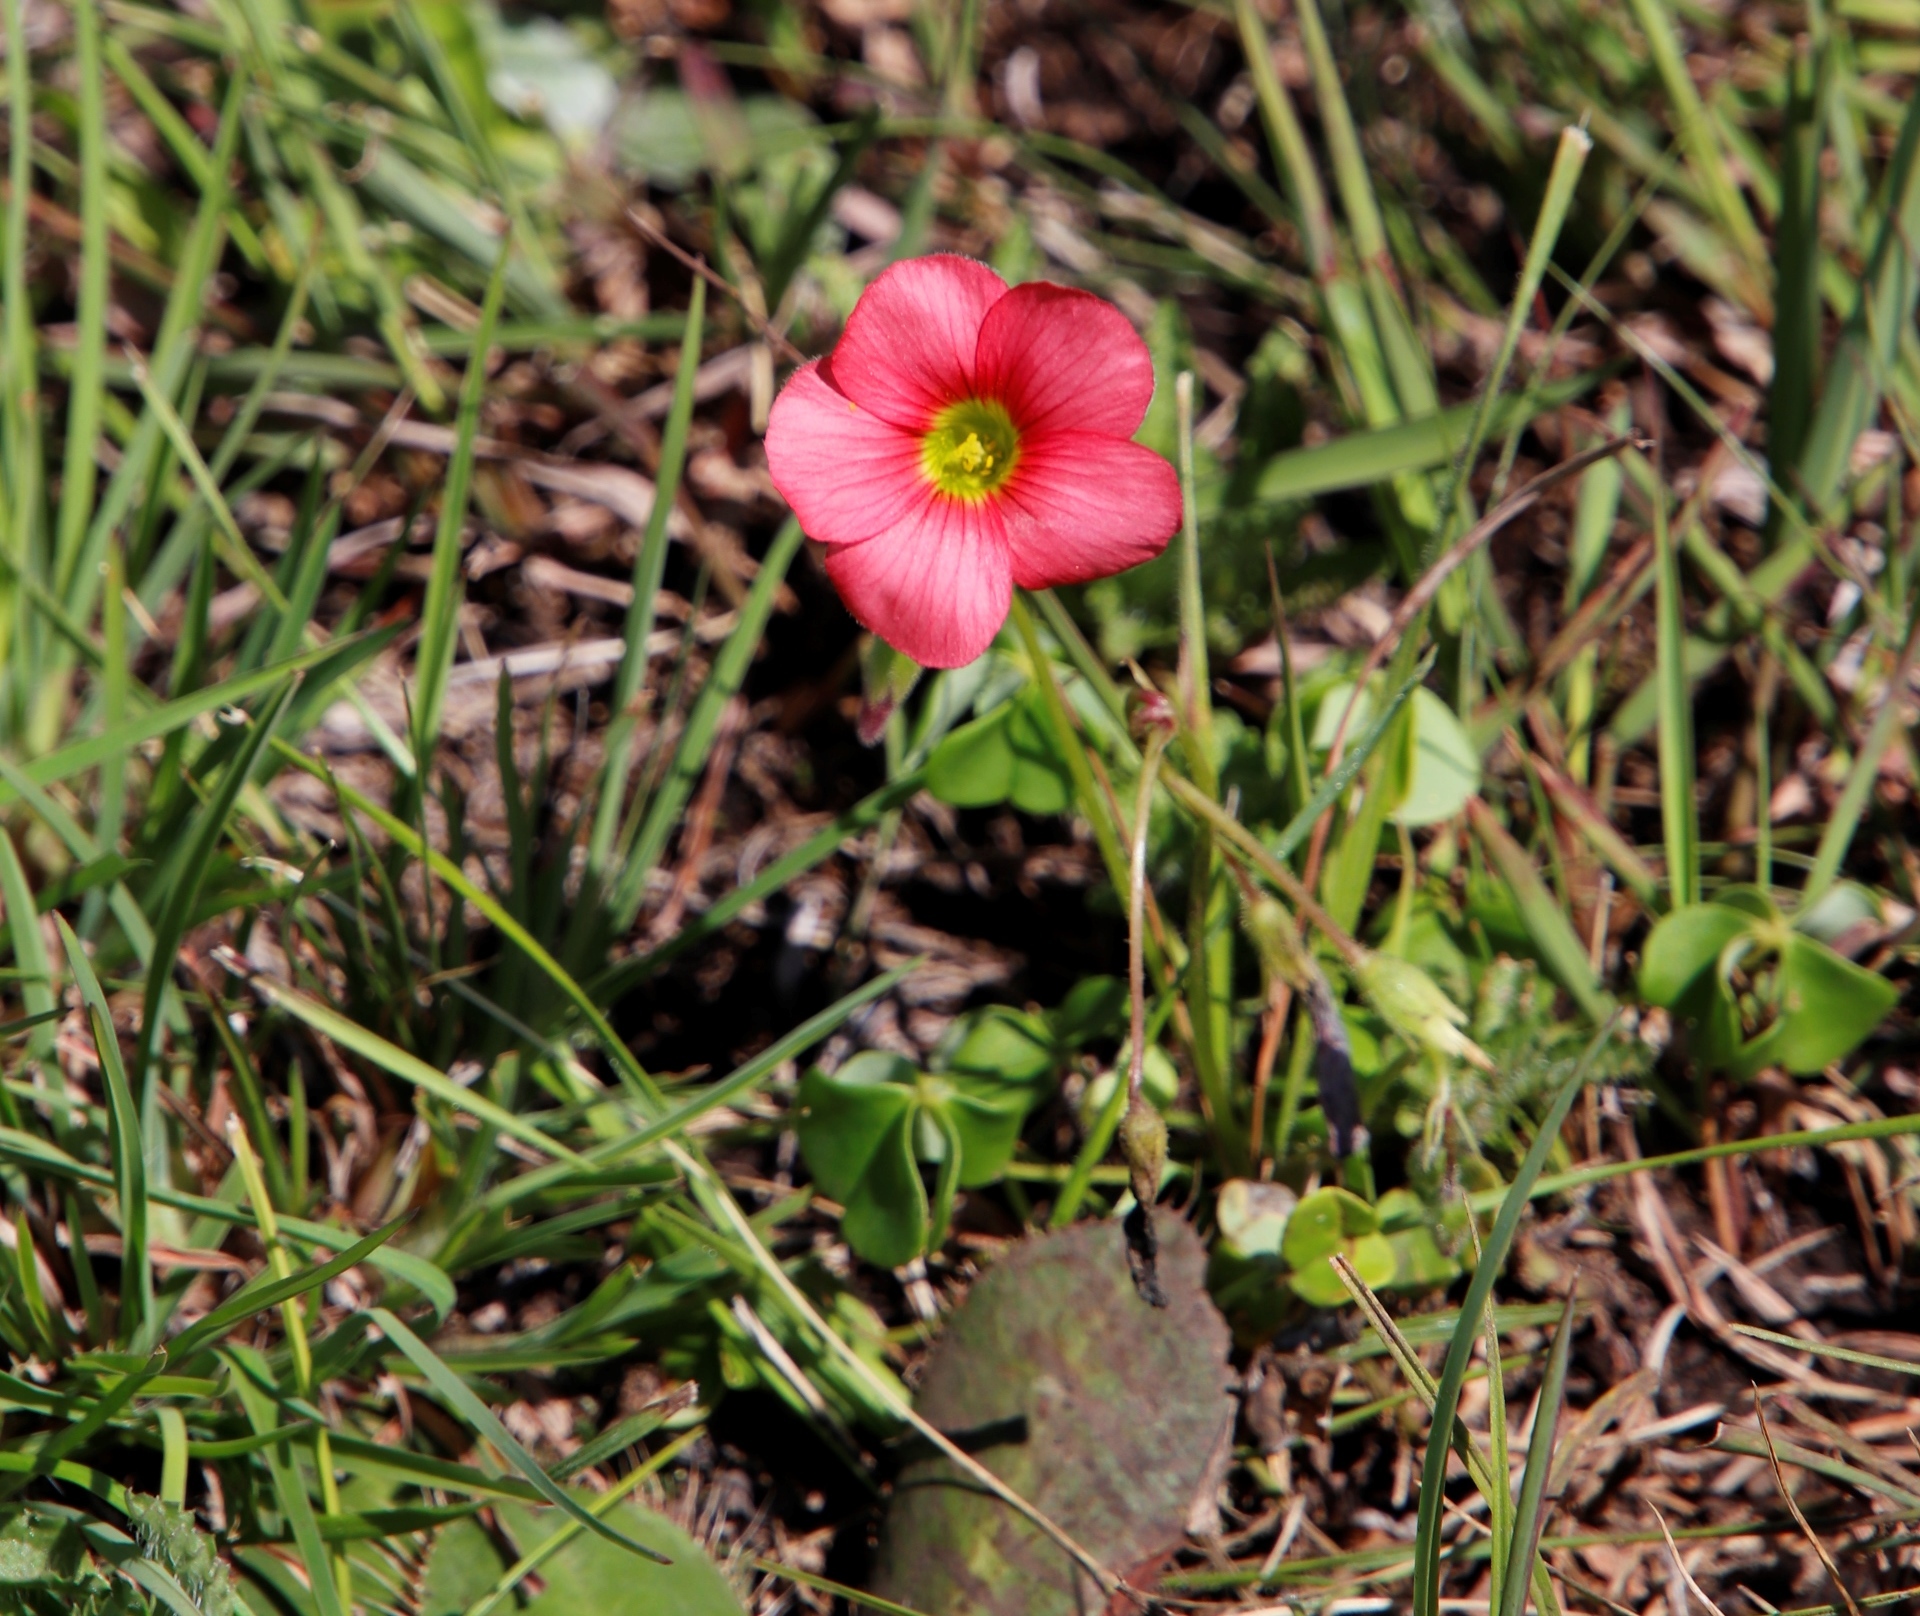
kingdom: Plantae
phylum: Tracheophyta
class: Magnoliopsida
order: Oxalidales
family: Oxalidaceae
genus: Oxalis
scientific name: Oxalis bowiei
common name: Bowie's wood-sorrel
